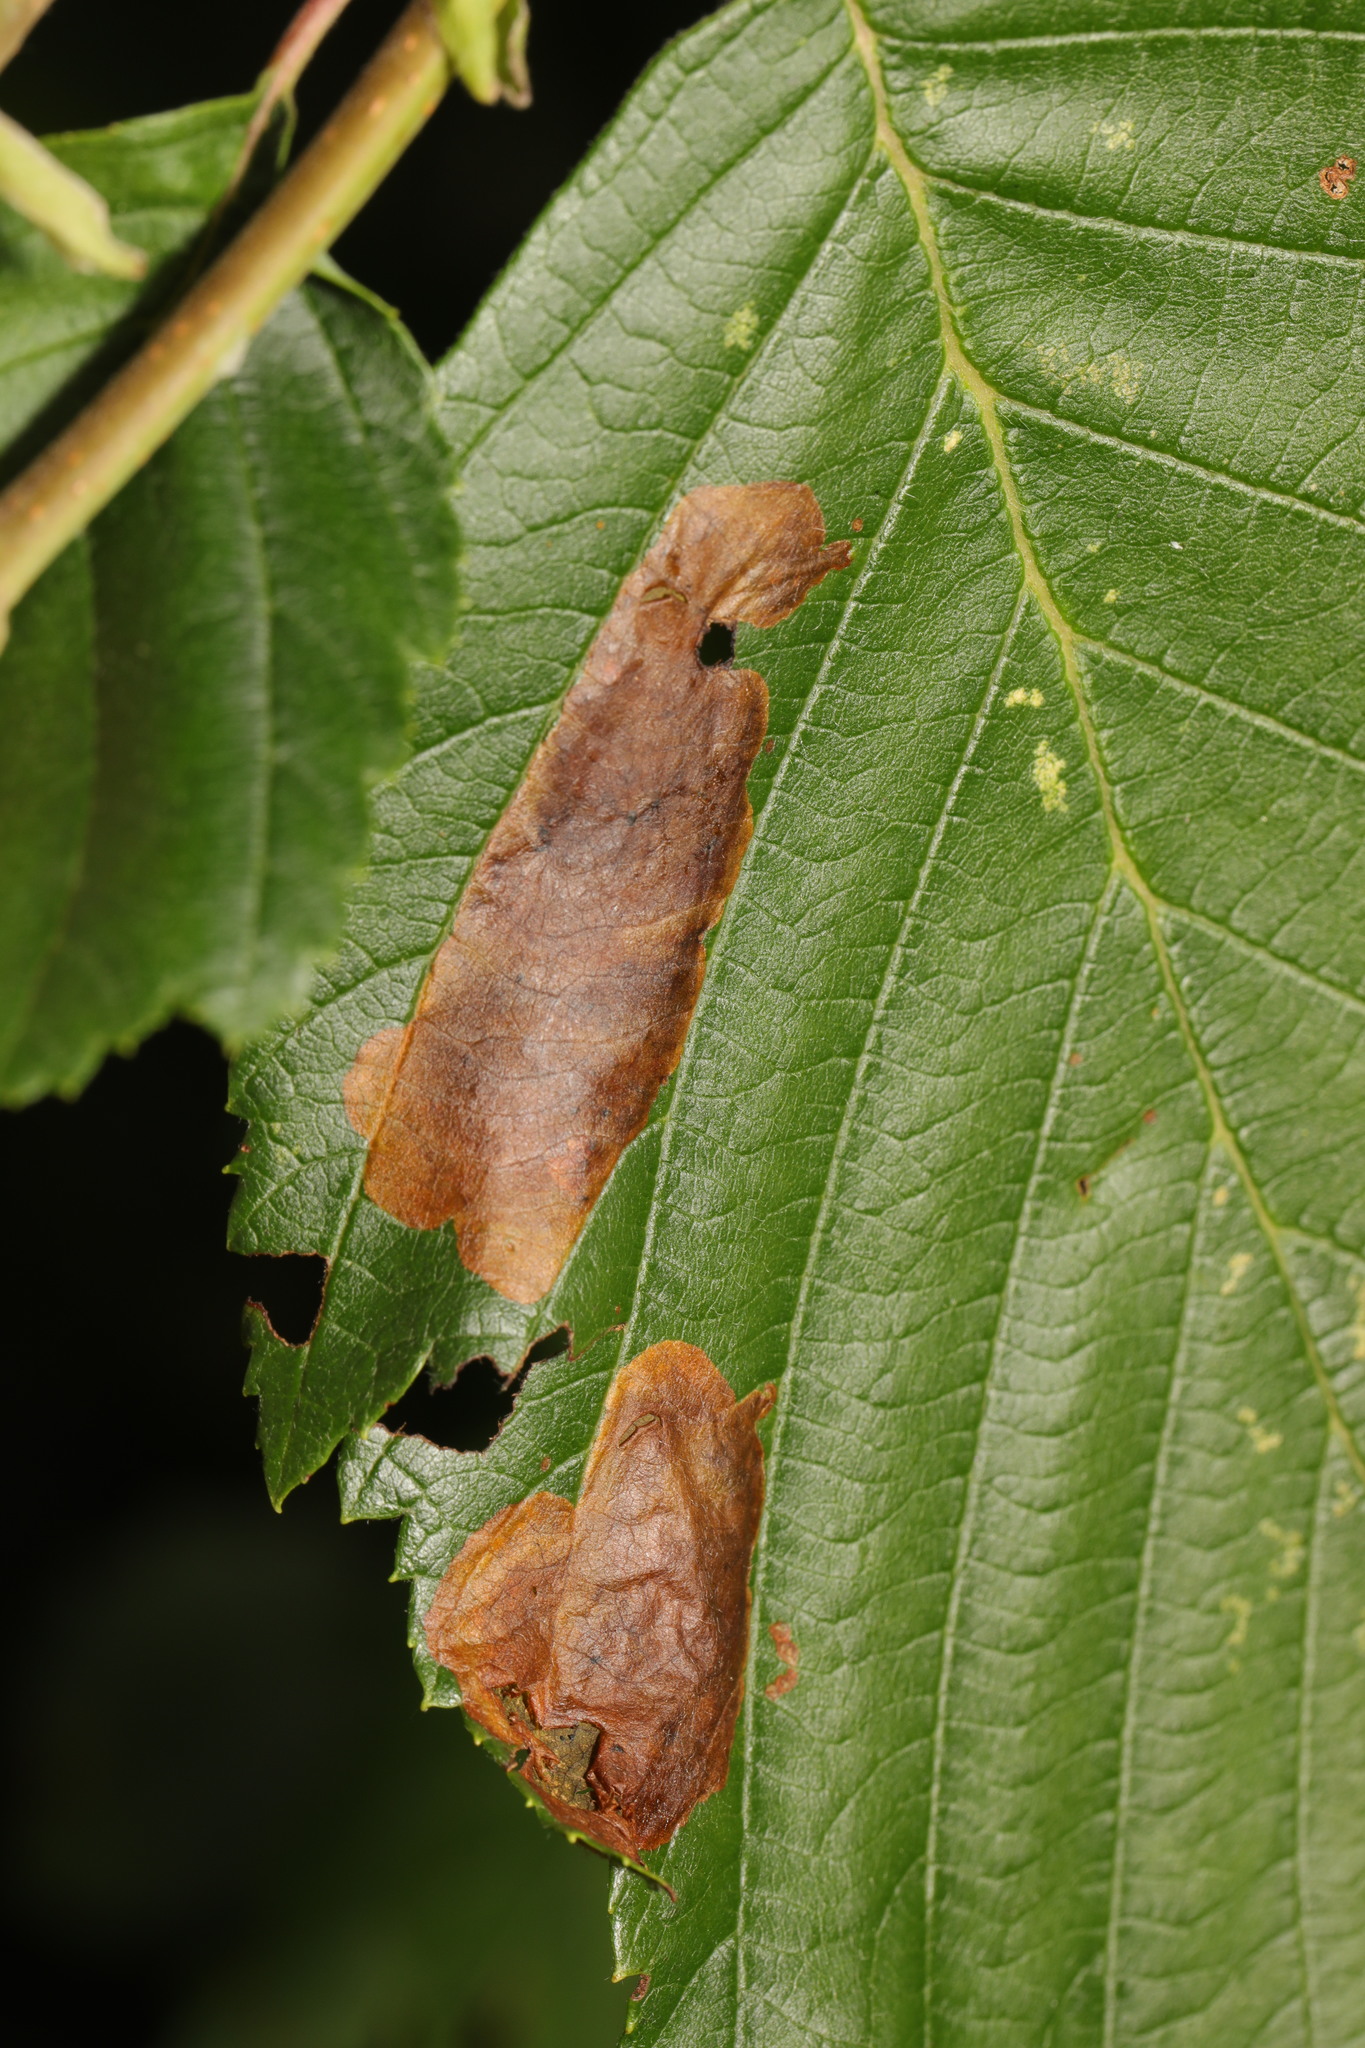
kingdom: Animalia
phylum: Arthropoda
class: Insecta
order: Hymenoptera
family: Tenthredinidae
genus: Fenusa
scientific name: Fenusa dohrnii
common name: European alder leafminer
